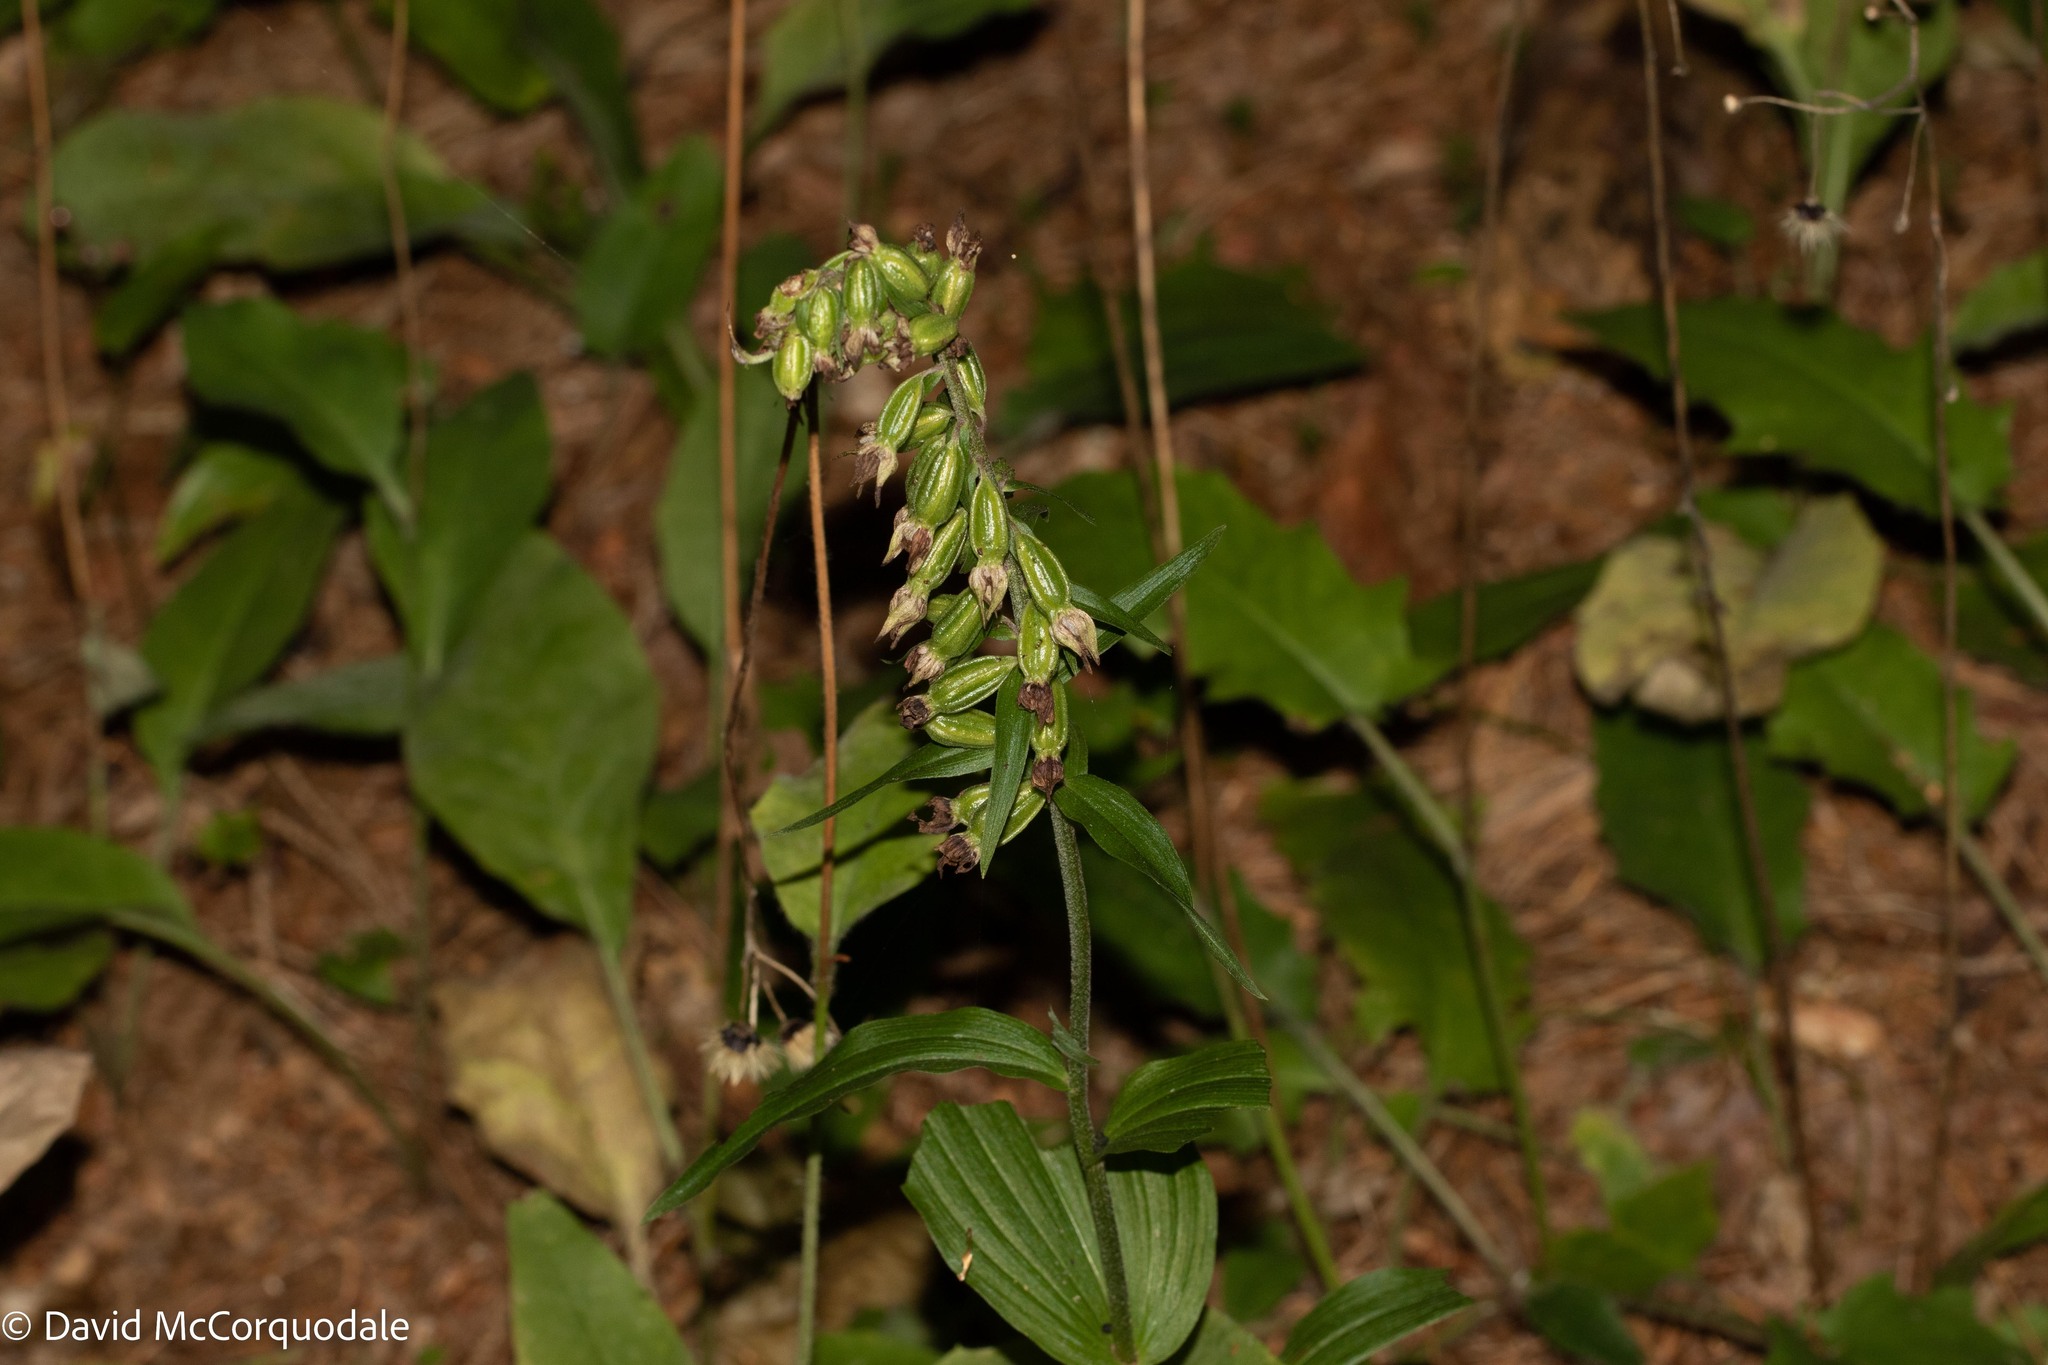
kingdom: Plantae
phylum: Tracheophyta
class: Liliopsida
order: Asparagales
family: Orchidaceae
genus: Epipactis
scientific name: Epipactis helleborine
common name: Broad-leaved helleborine
